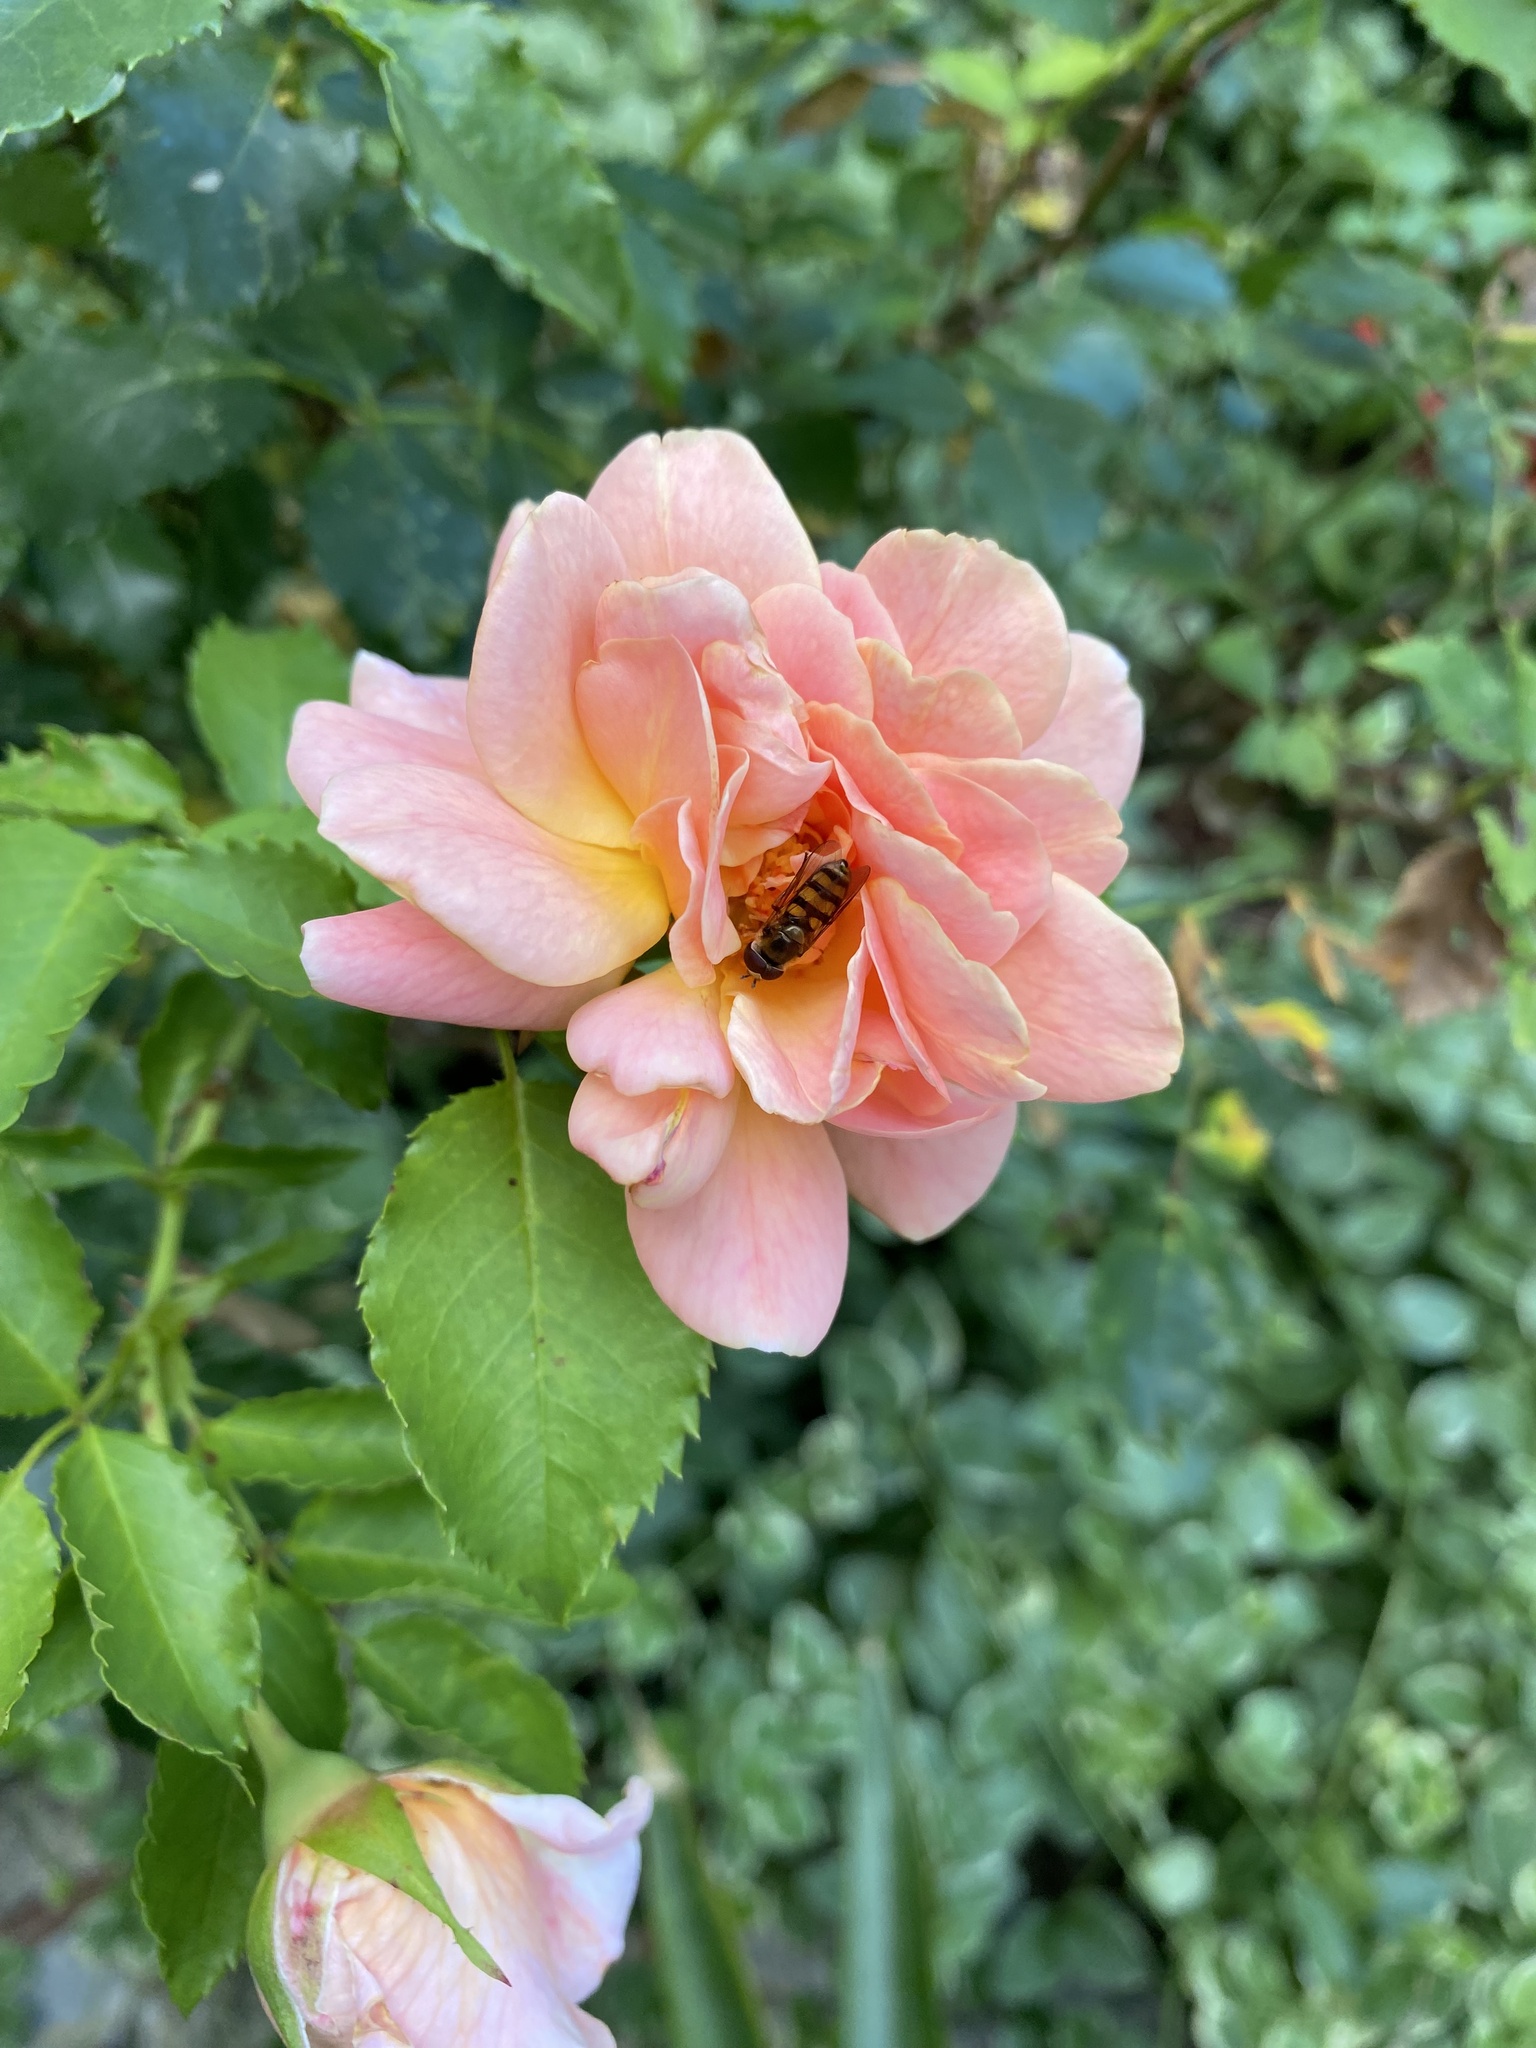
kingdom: Animalia
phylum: Arthropoda
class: Insecta
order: Diptera
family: Syrphidae
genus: Eupeodes
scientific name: Eupeodes
